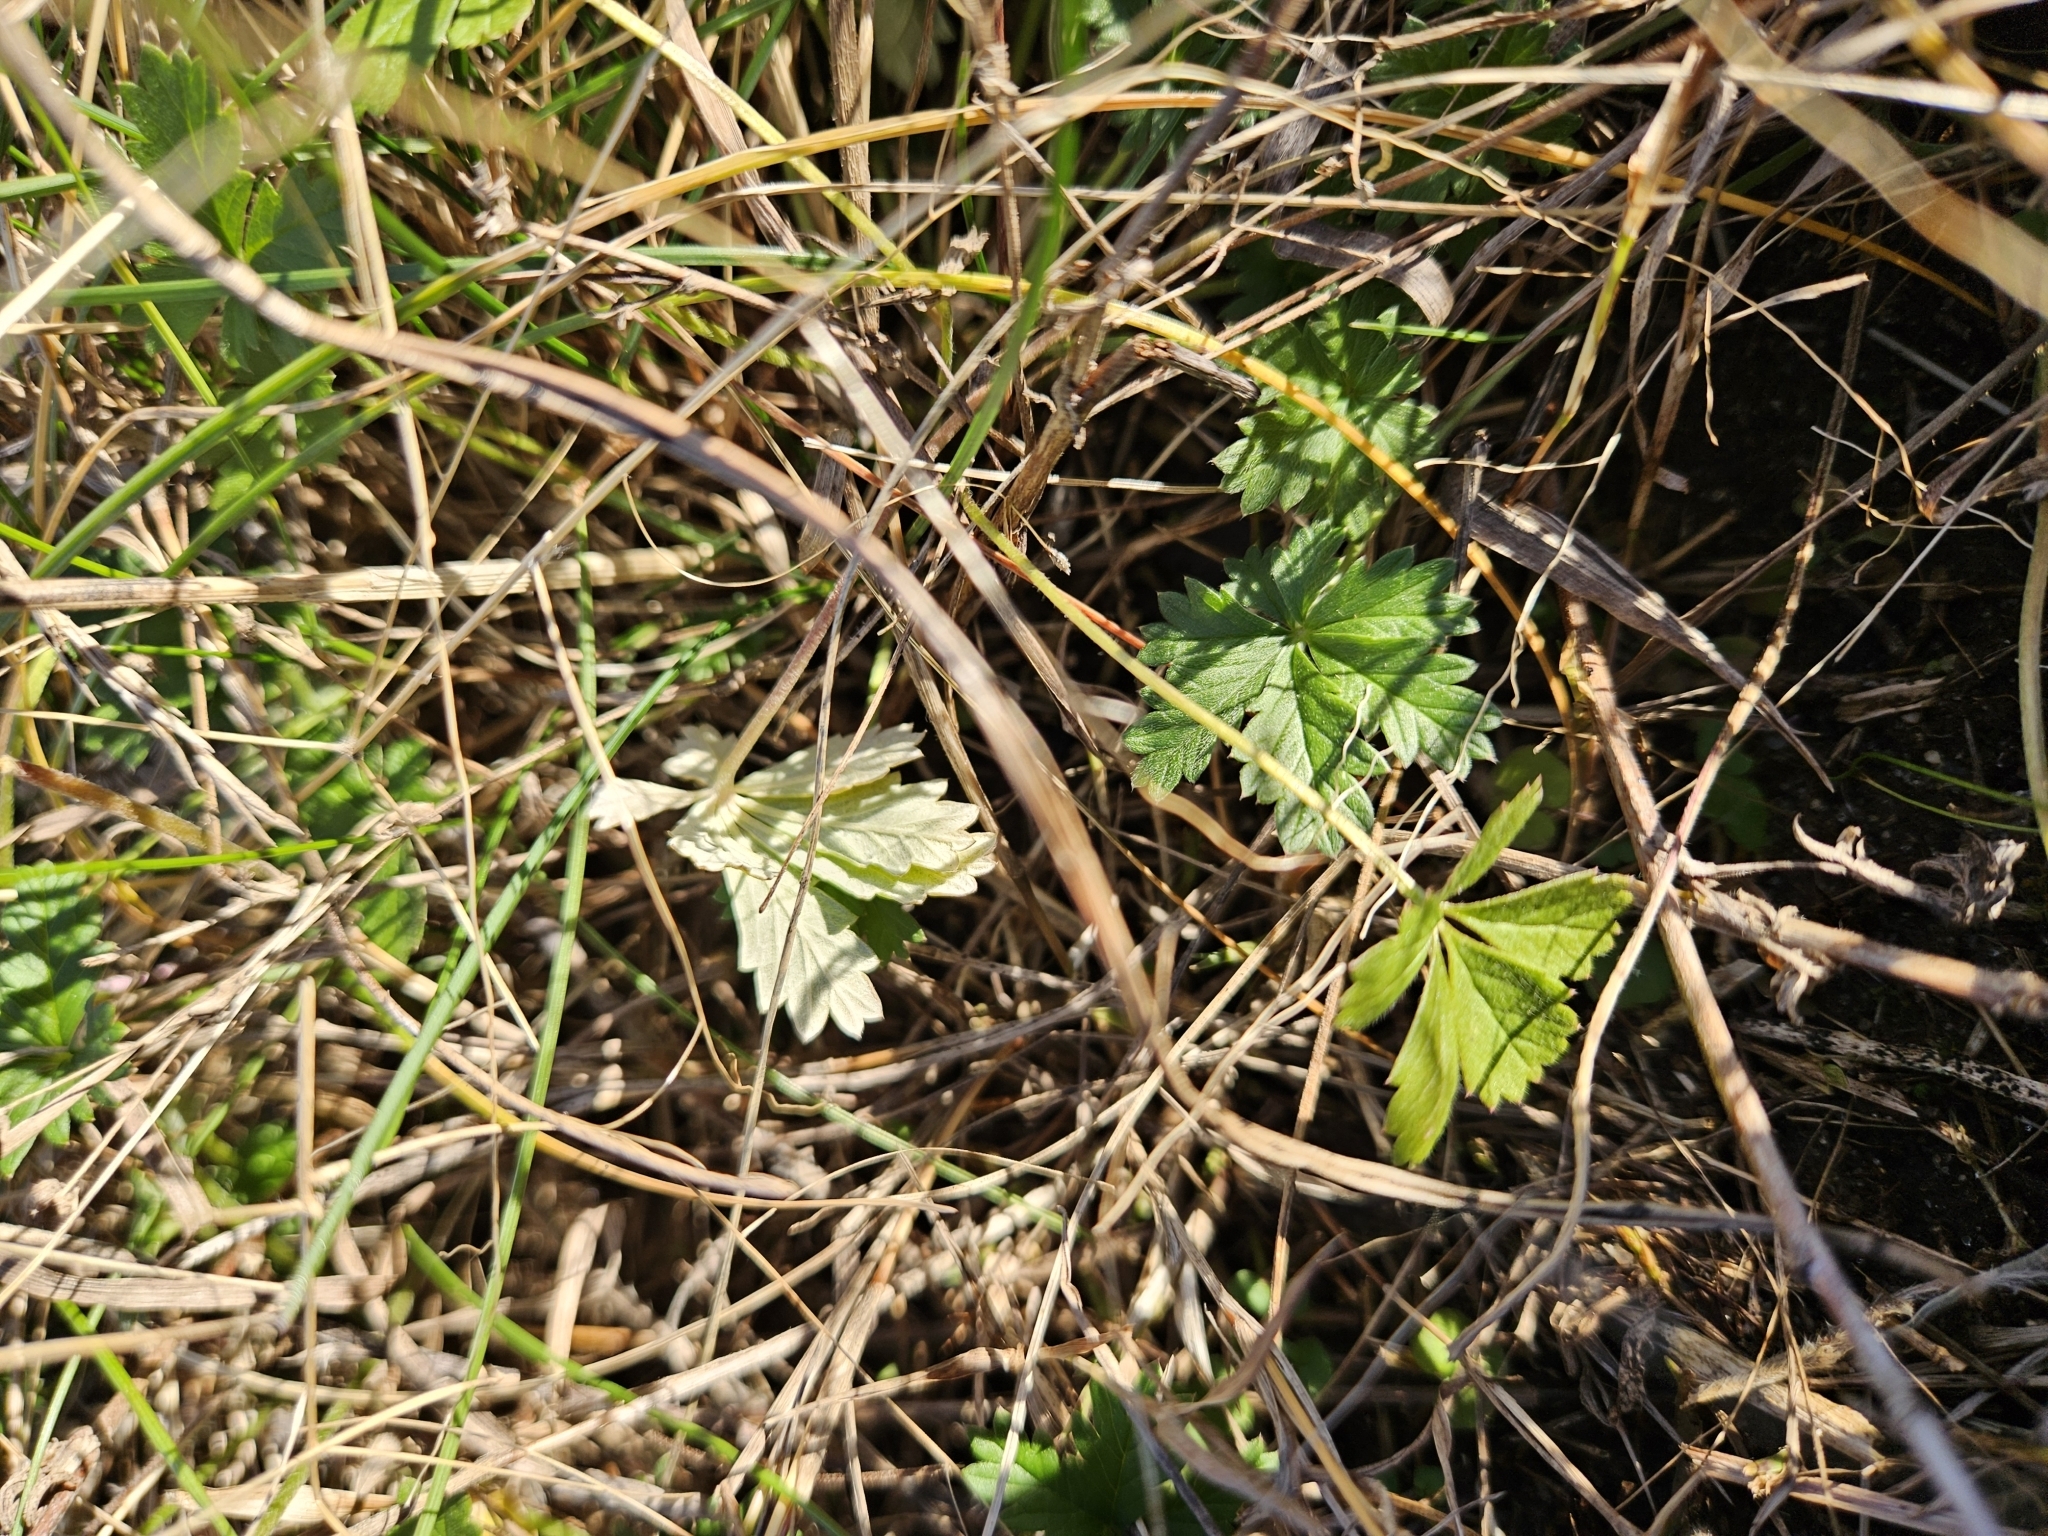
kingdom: Plantae
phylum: Tracheophyta
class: Magnoliopsida
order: Rosales
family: Rosaceae
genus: Potentilla
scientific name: Potentilla argentea
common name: Hoary cinquefoil
